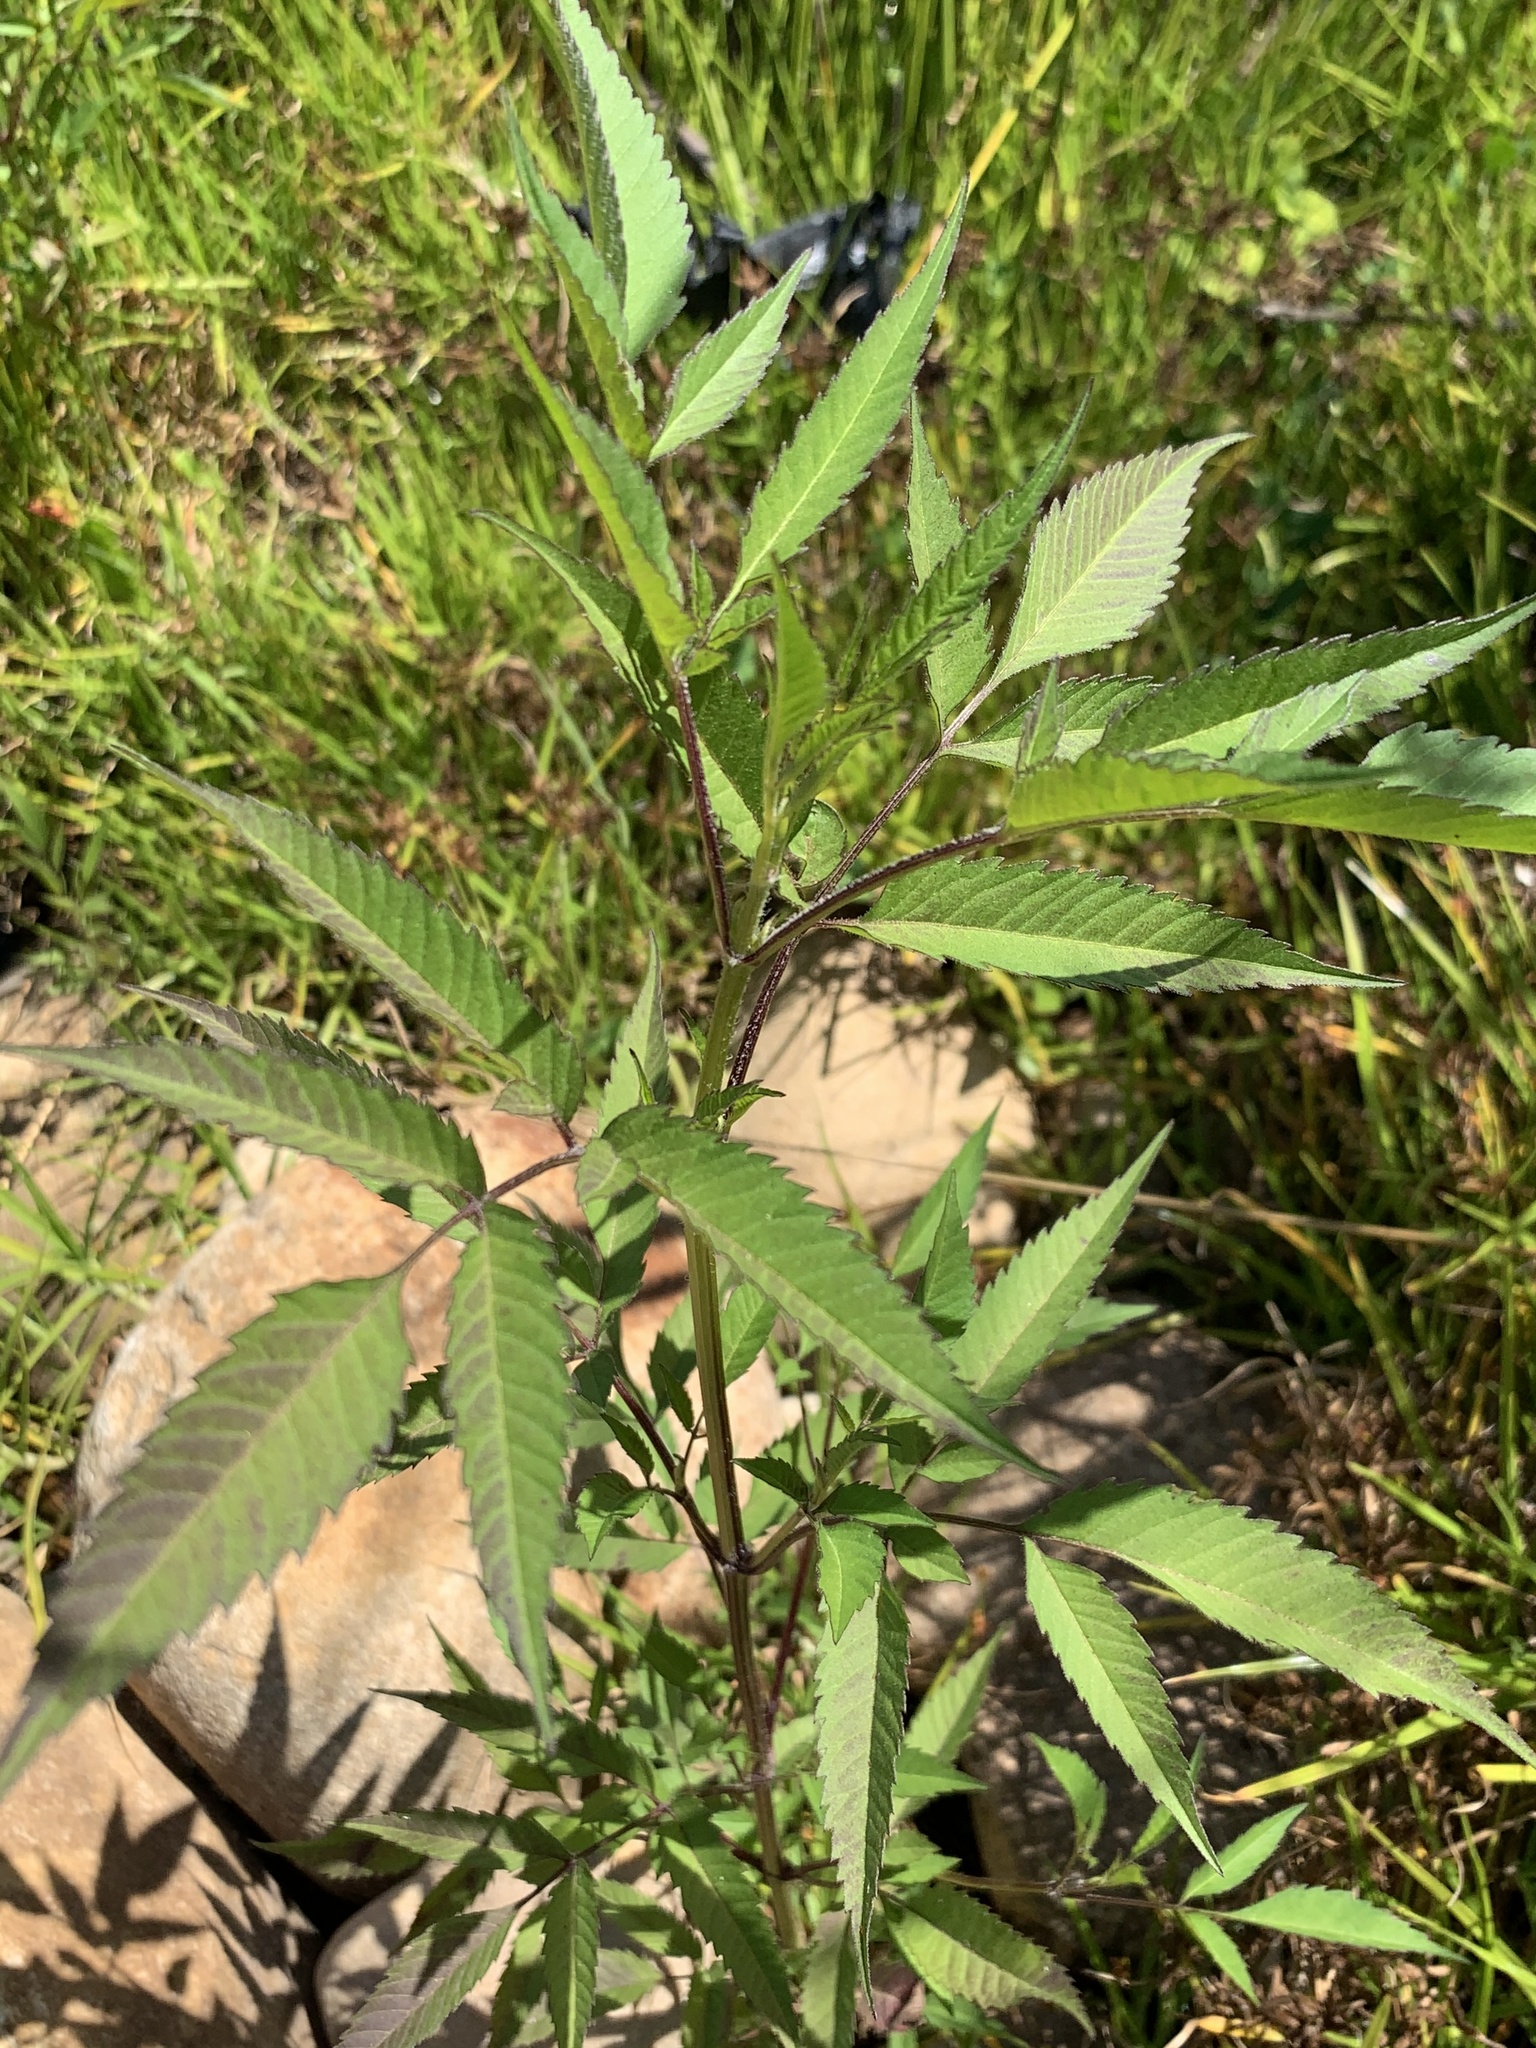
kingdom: Plantae
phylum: Tracheophyta
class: Magnoliopsida
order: Asterales
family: Asteraceae
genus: Bidens
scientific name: Bidens frondosa
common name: Beggarticks
